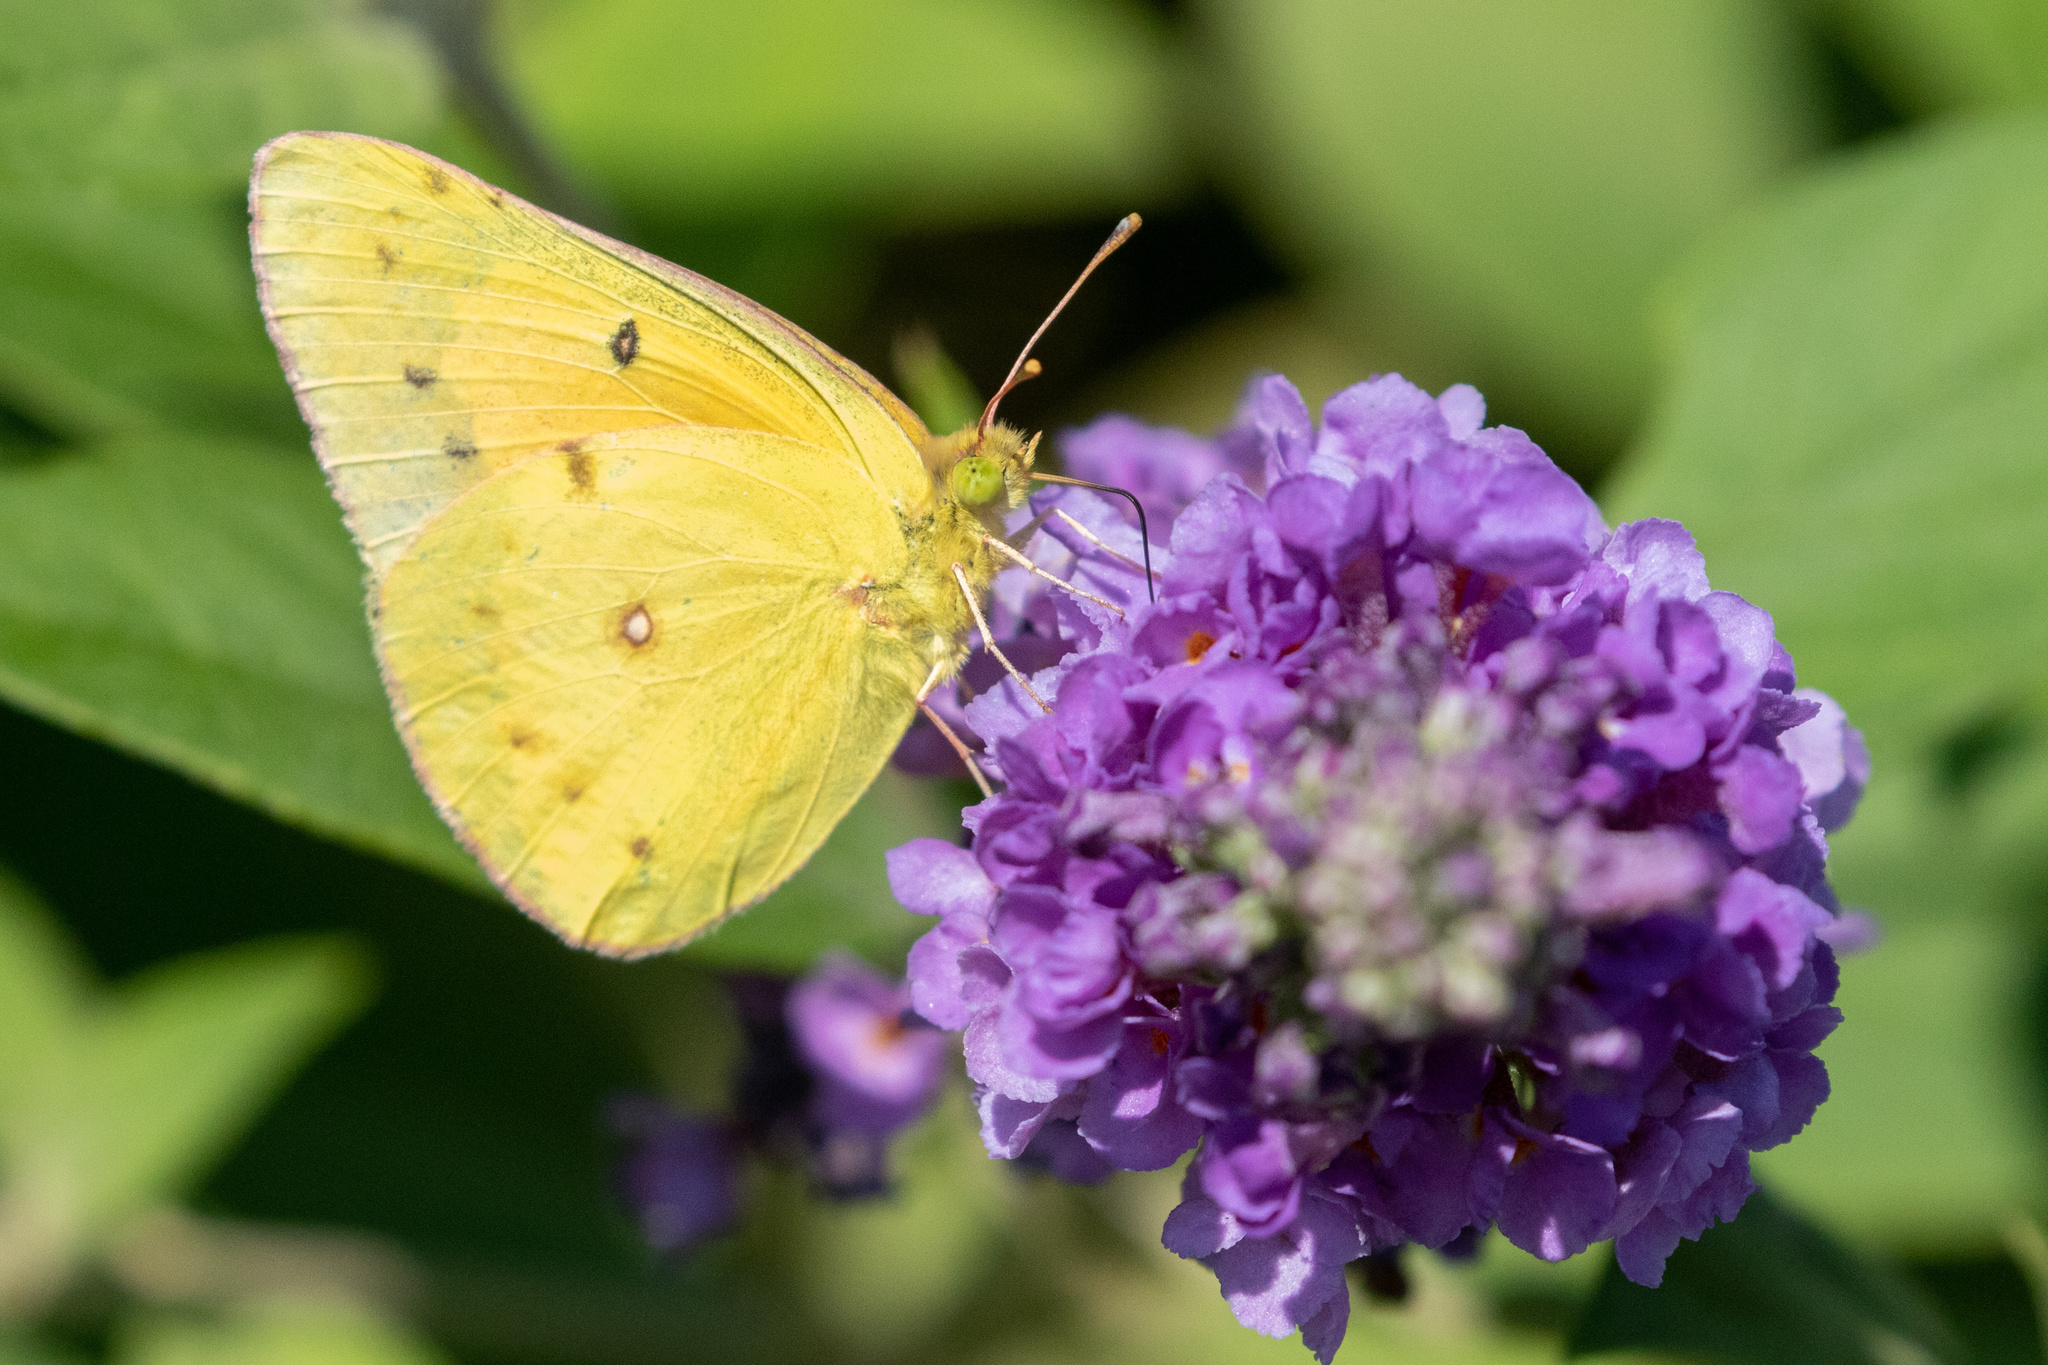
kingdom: Animalia
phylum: Arthropoda
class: Insecta
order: Lepidoptera
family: Pieridae
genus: Colias
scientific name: Colias eurytheme
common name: Alfalfa butterfly
